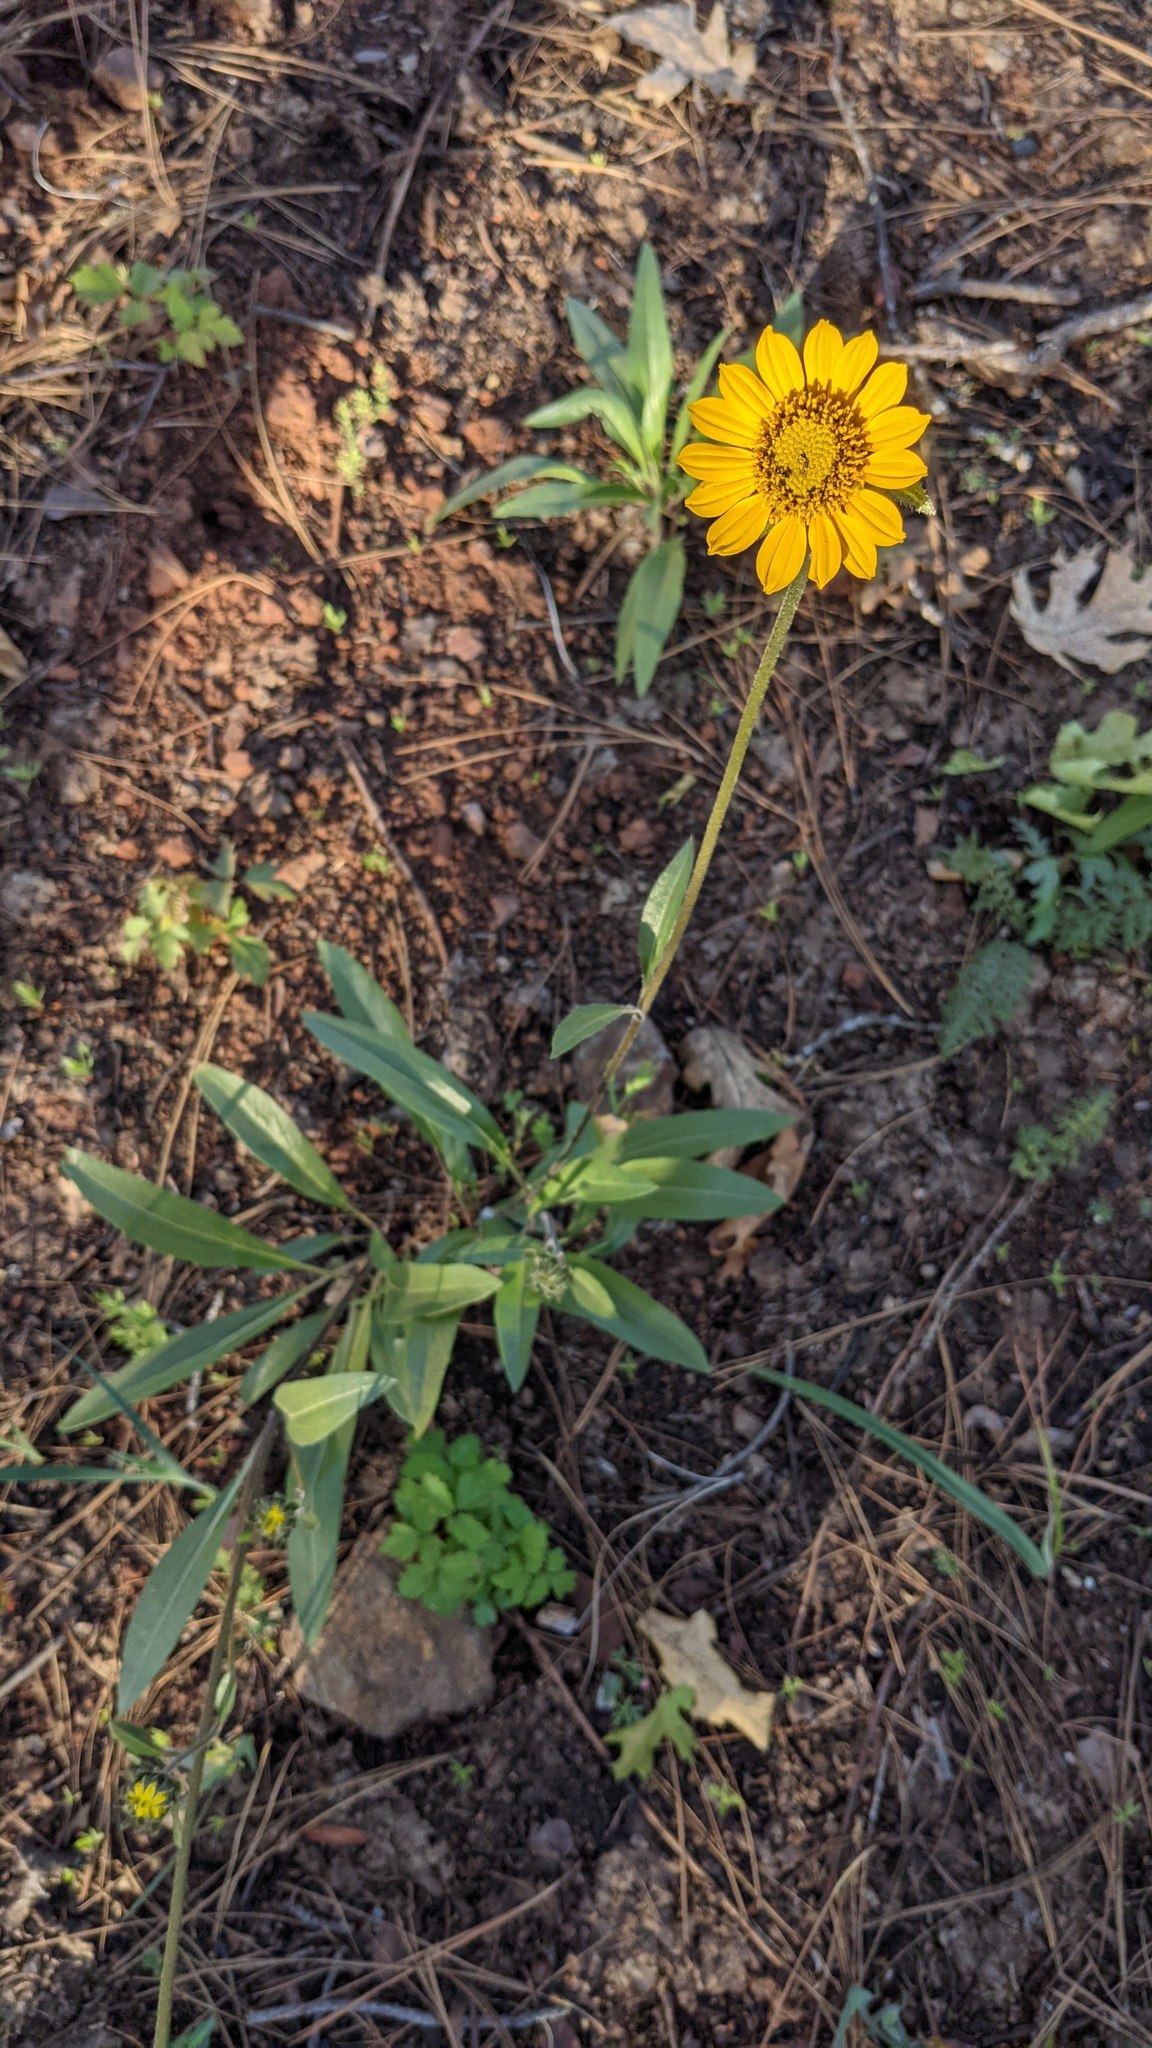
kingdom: Plantae
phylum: Tracheophyta
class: Magnoliopsida
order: Asterales
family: Asteraceae
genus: Helianthella
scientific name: Helianthella californica
